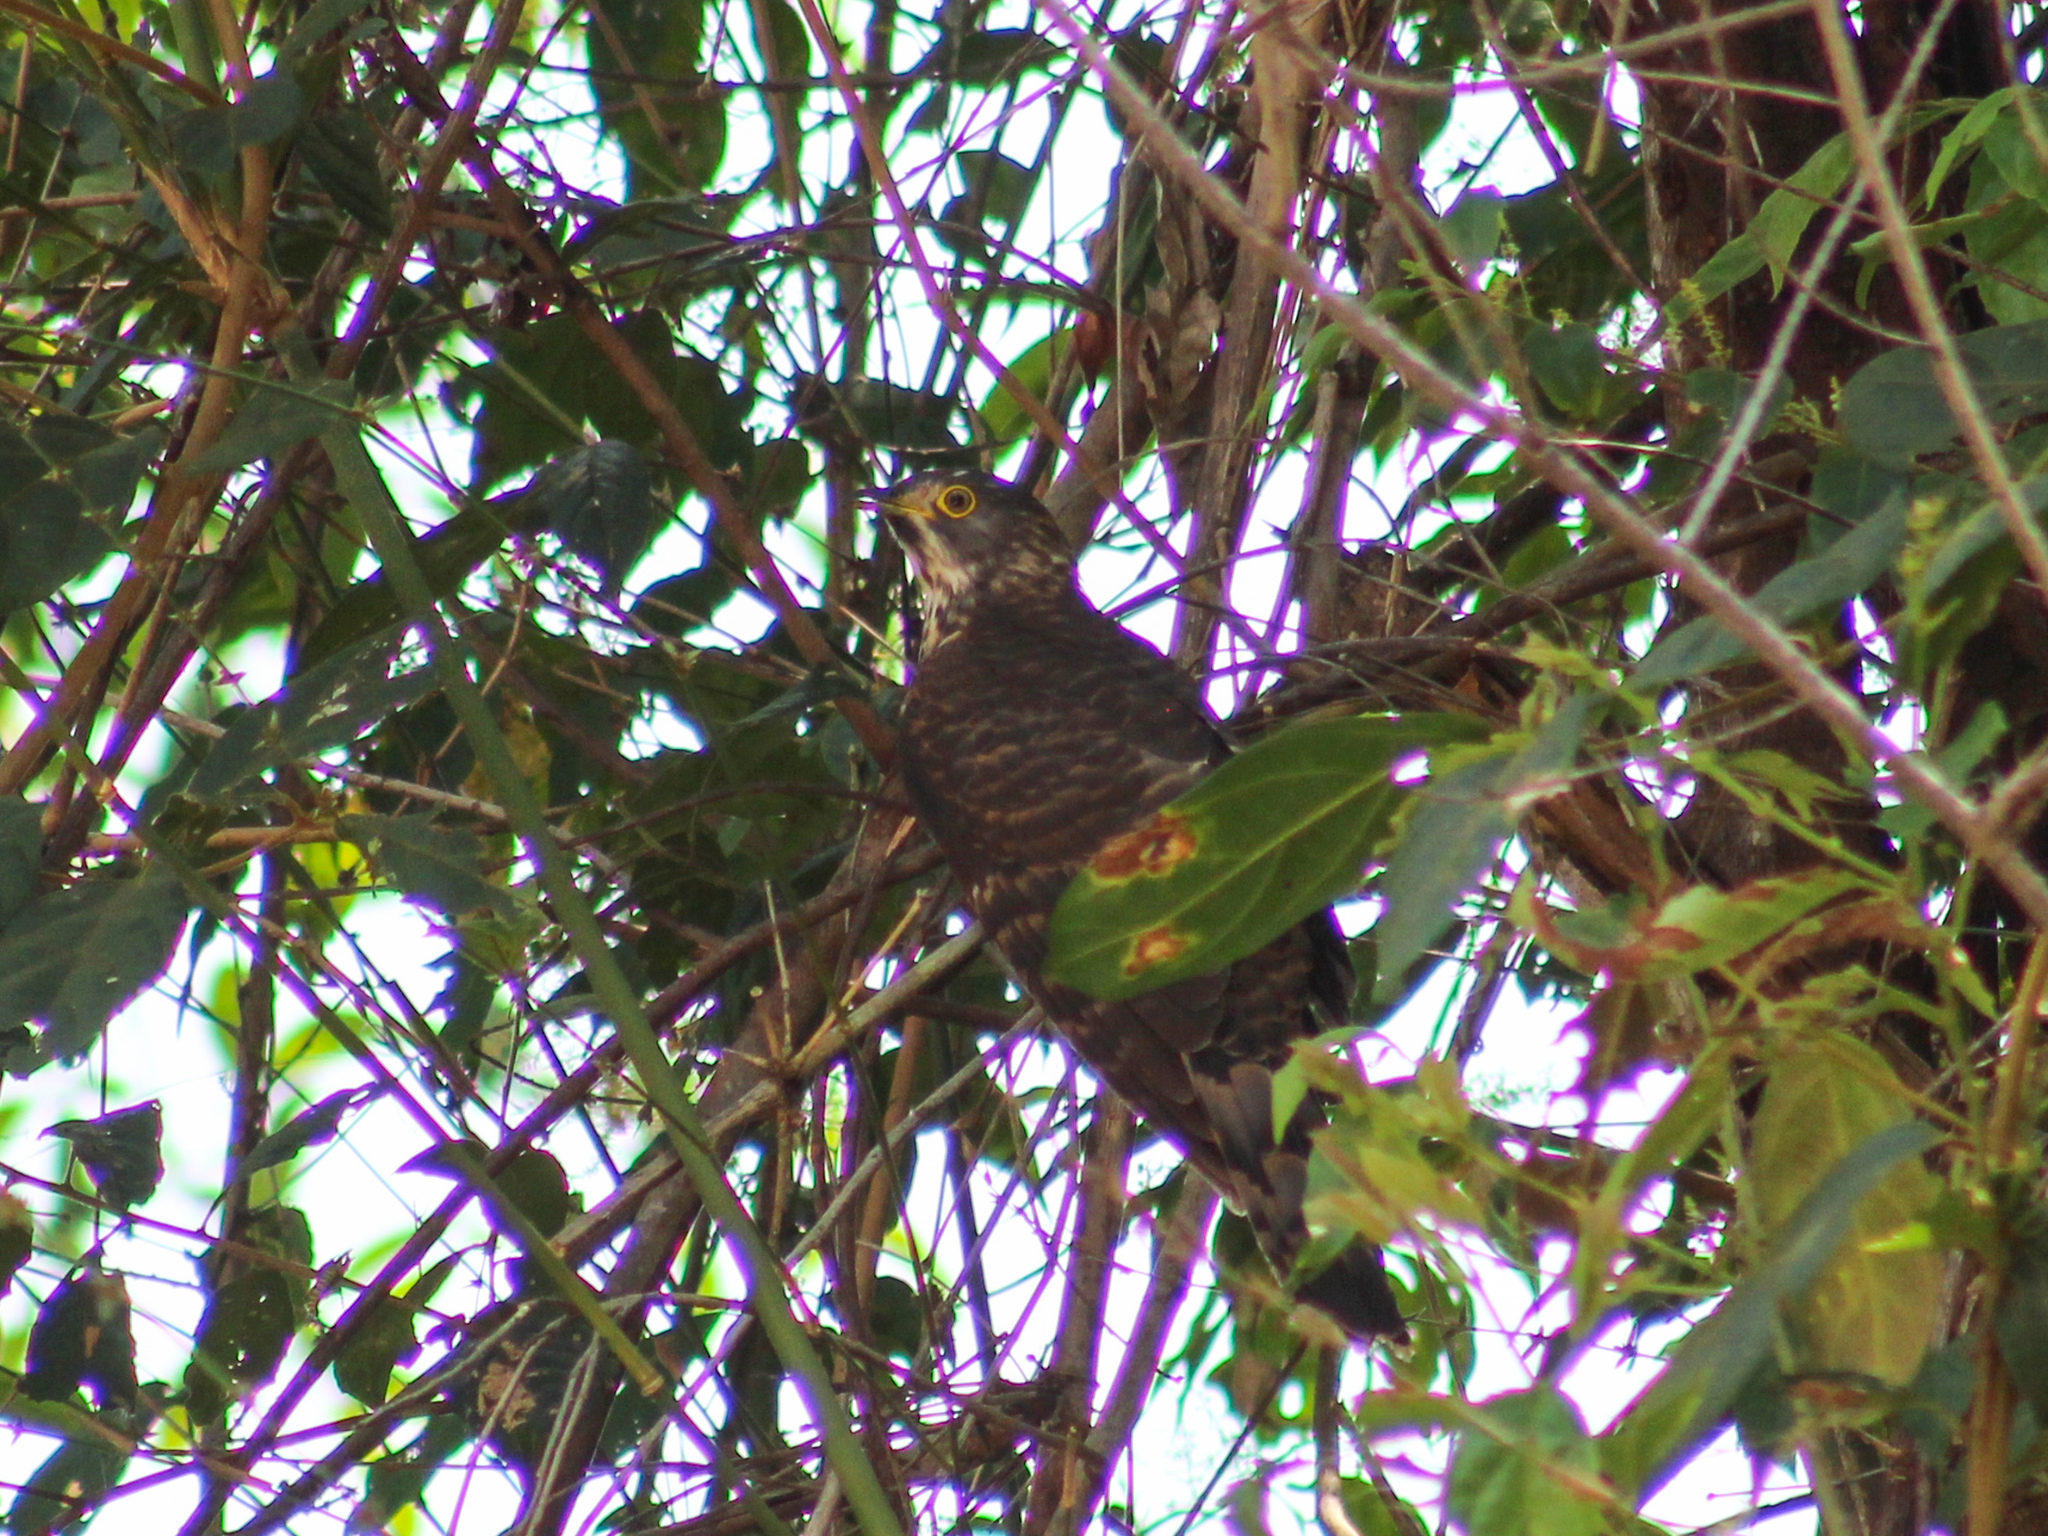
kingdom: Animalia
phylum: Chordata
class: Aves
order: Cuculiformes
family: Cuculidae
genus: Cuculus
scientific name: Cuculus sparverioides
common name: Large hawk cuckoo
